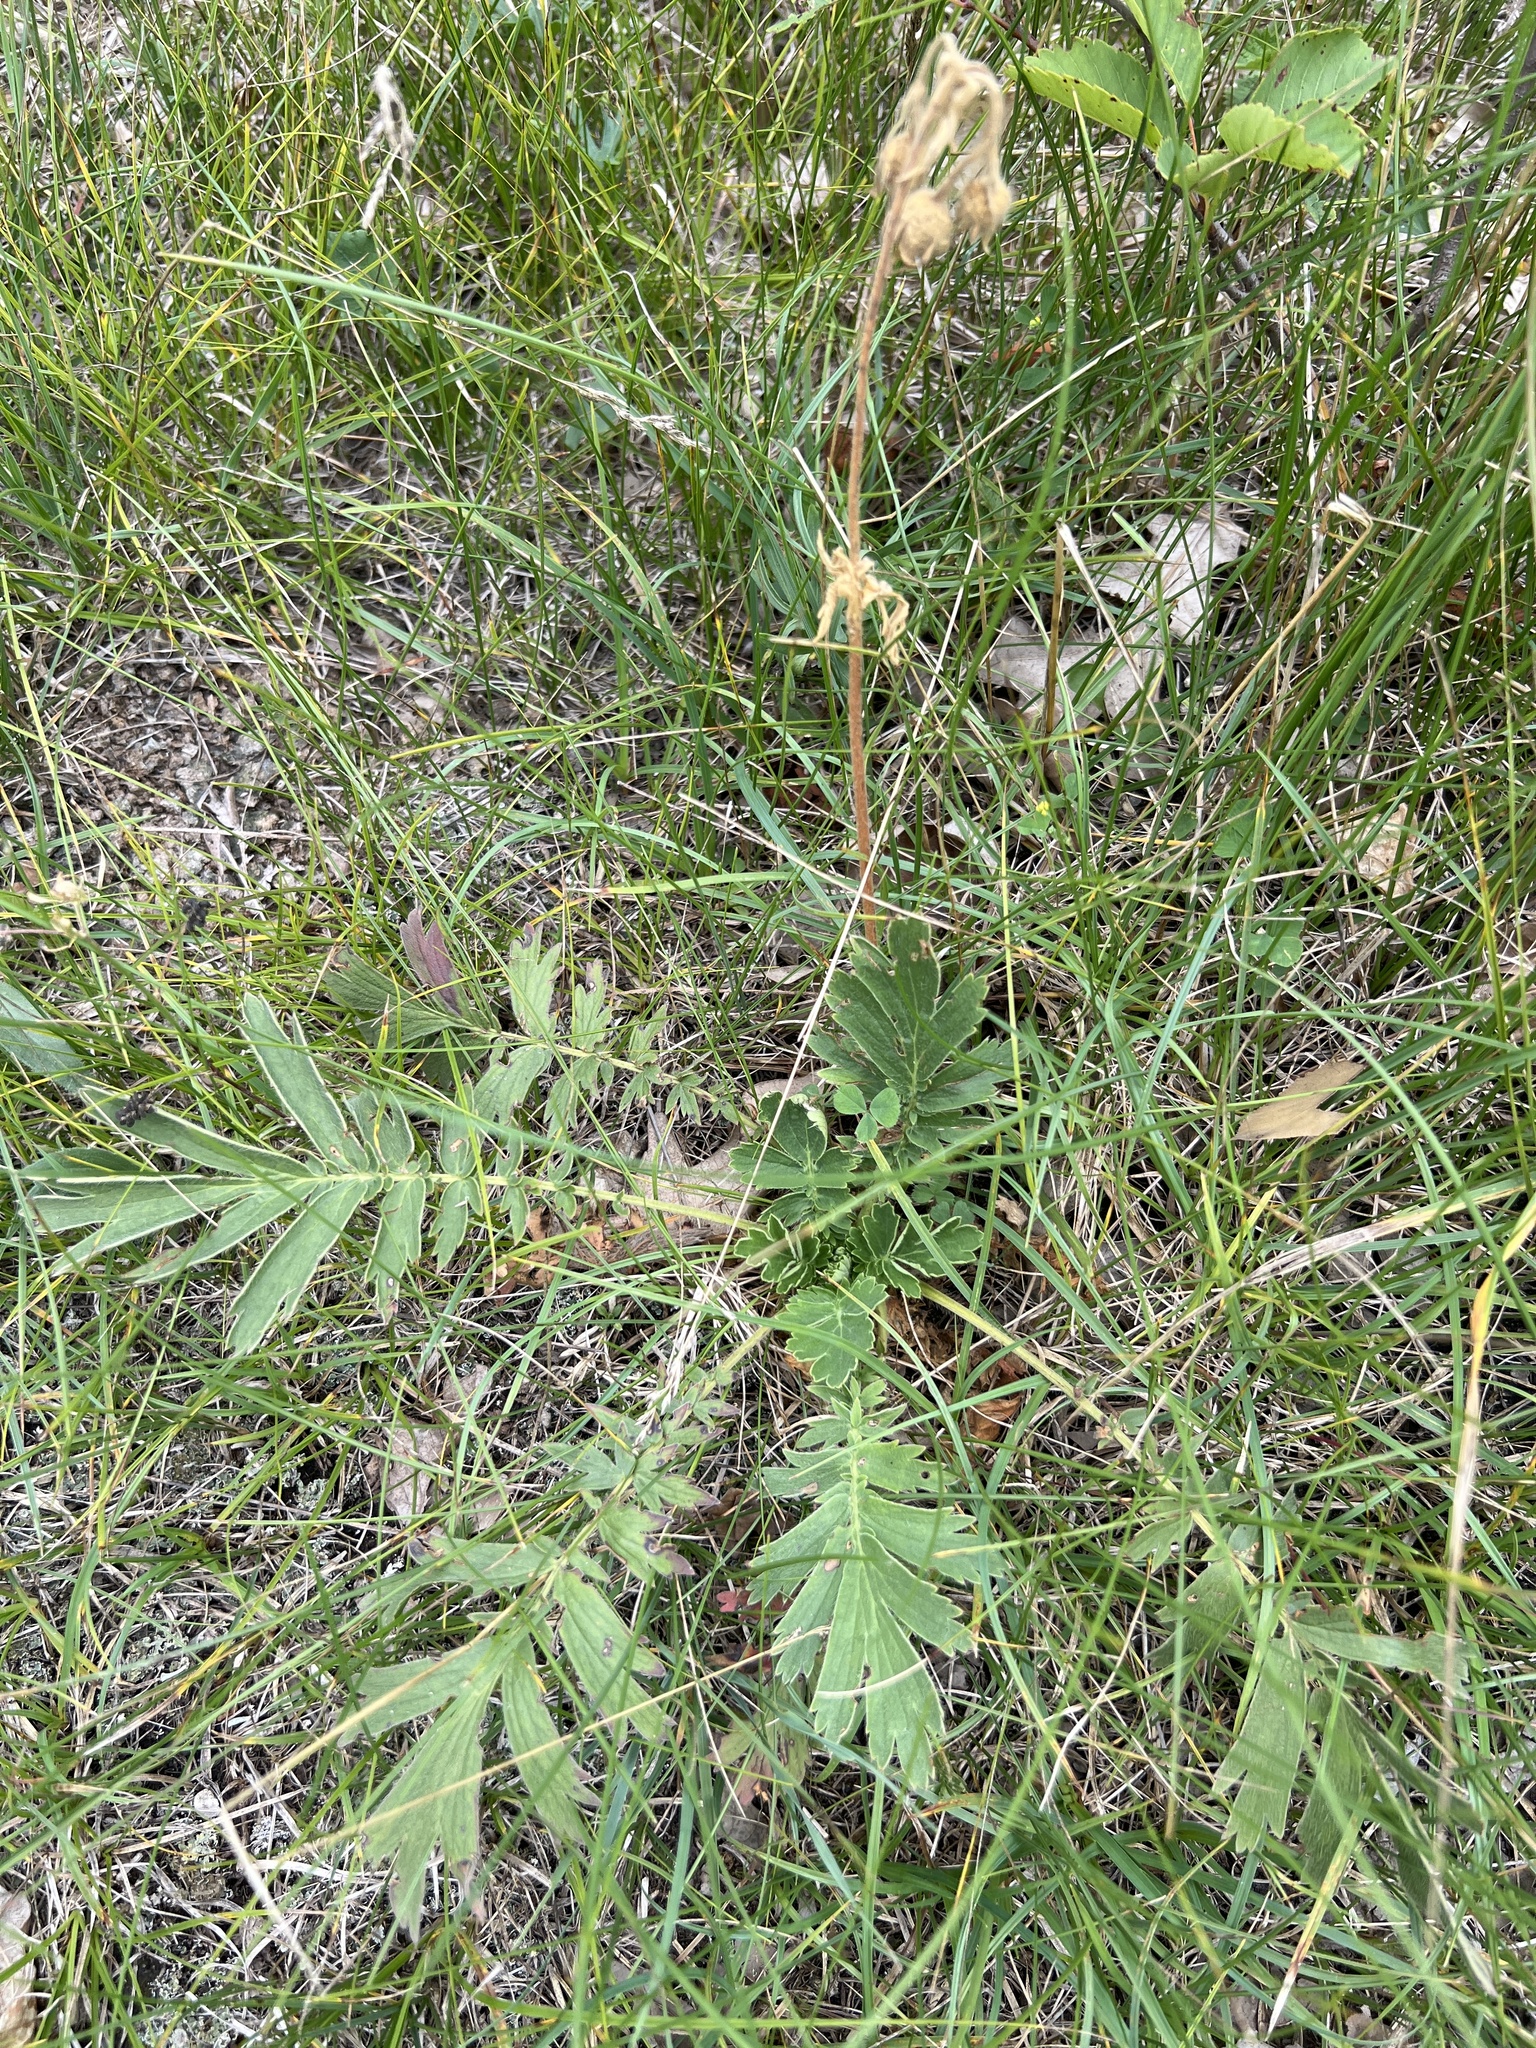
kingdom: Plantae
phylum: Tracheophyta
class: Magnoliopsida
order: Rosales
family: Rosaceae
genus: Geum
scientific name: Geum triflorum
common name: Old man's whiskers
